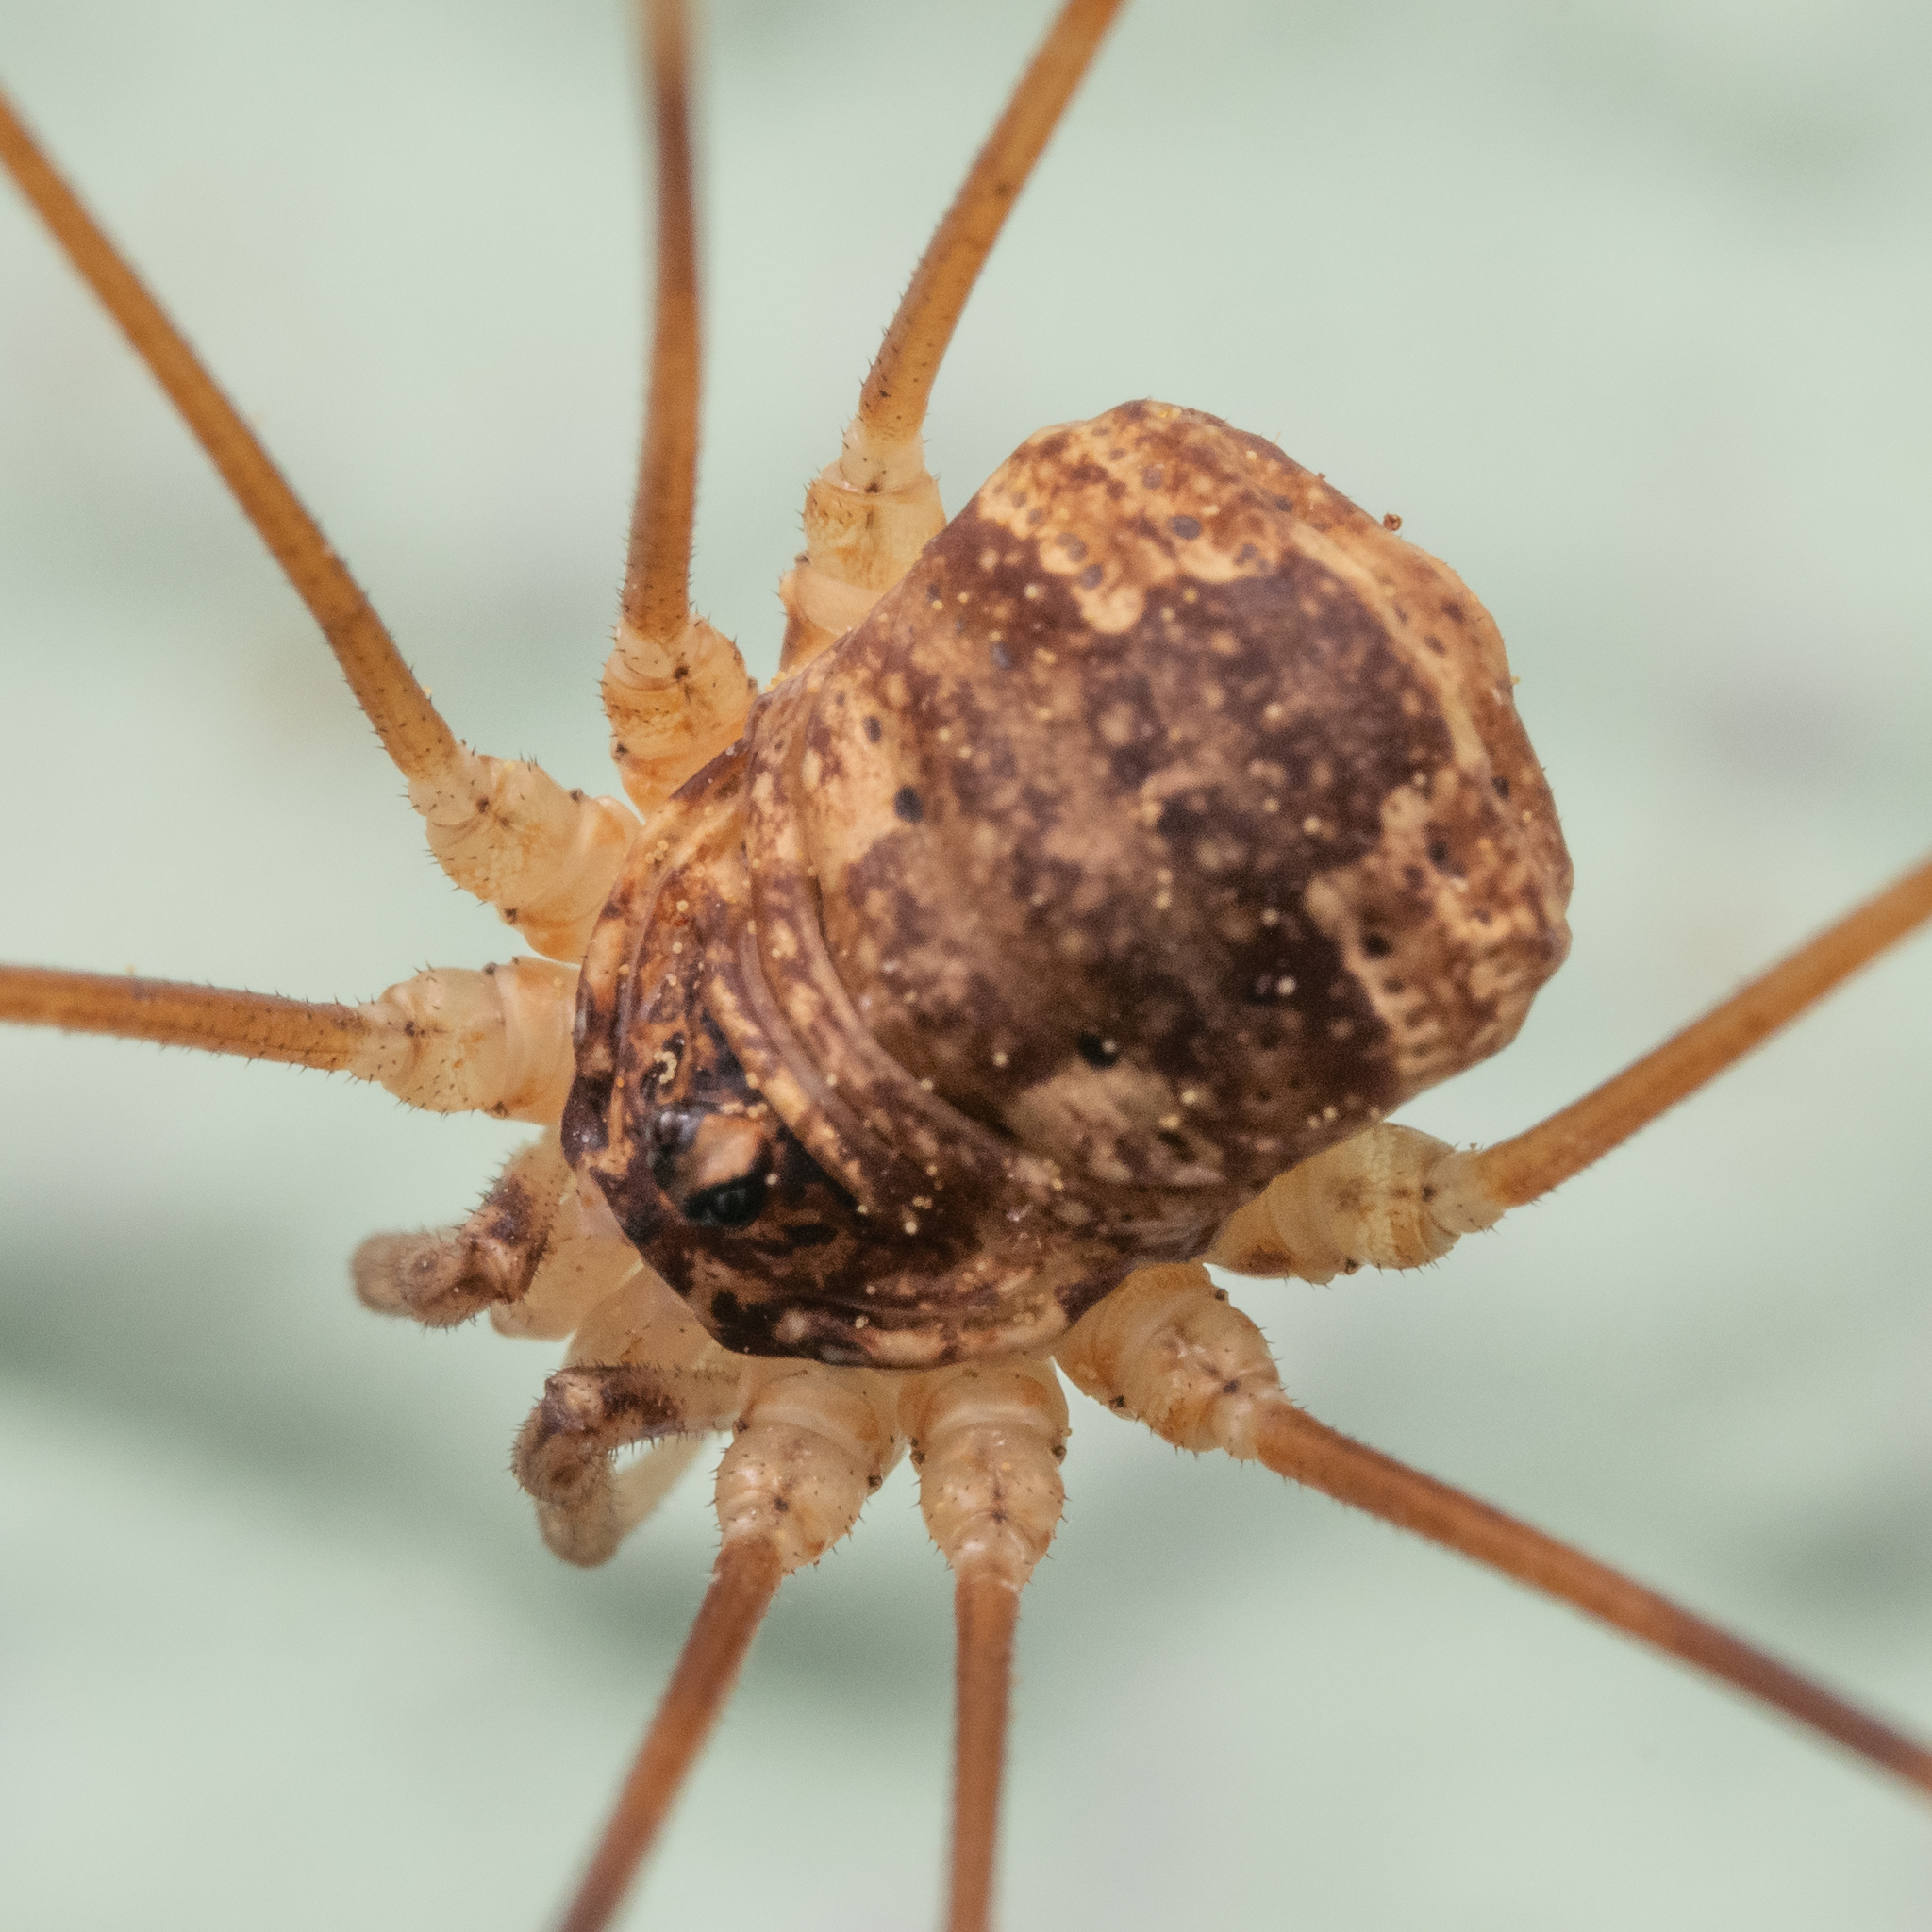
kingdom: Animalia
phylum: Arthropoda
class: Arachnida
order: Opiliones
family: Phalangiidae
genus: Leptobunus
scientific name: Leptobunus parvulus
